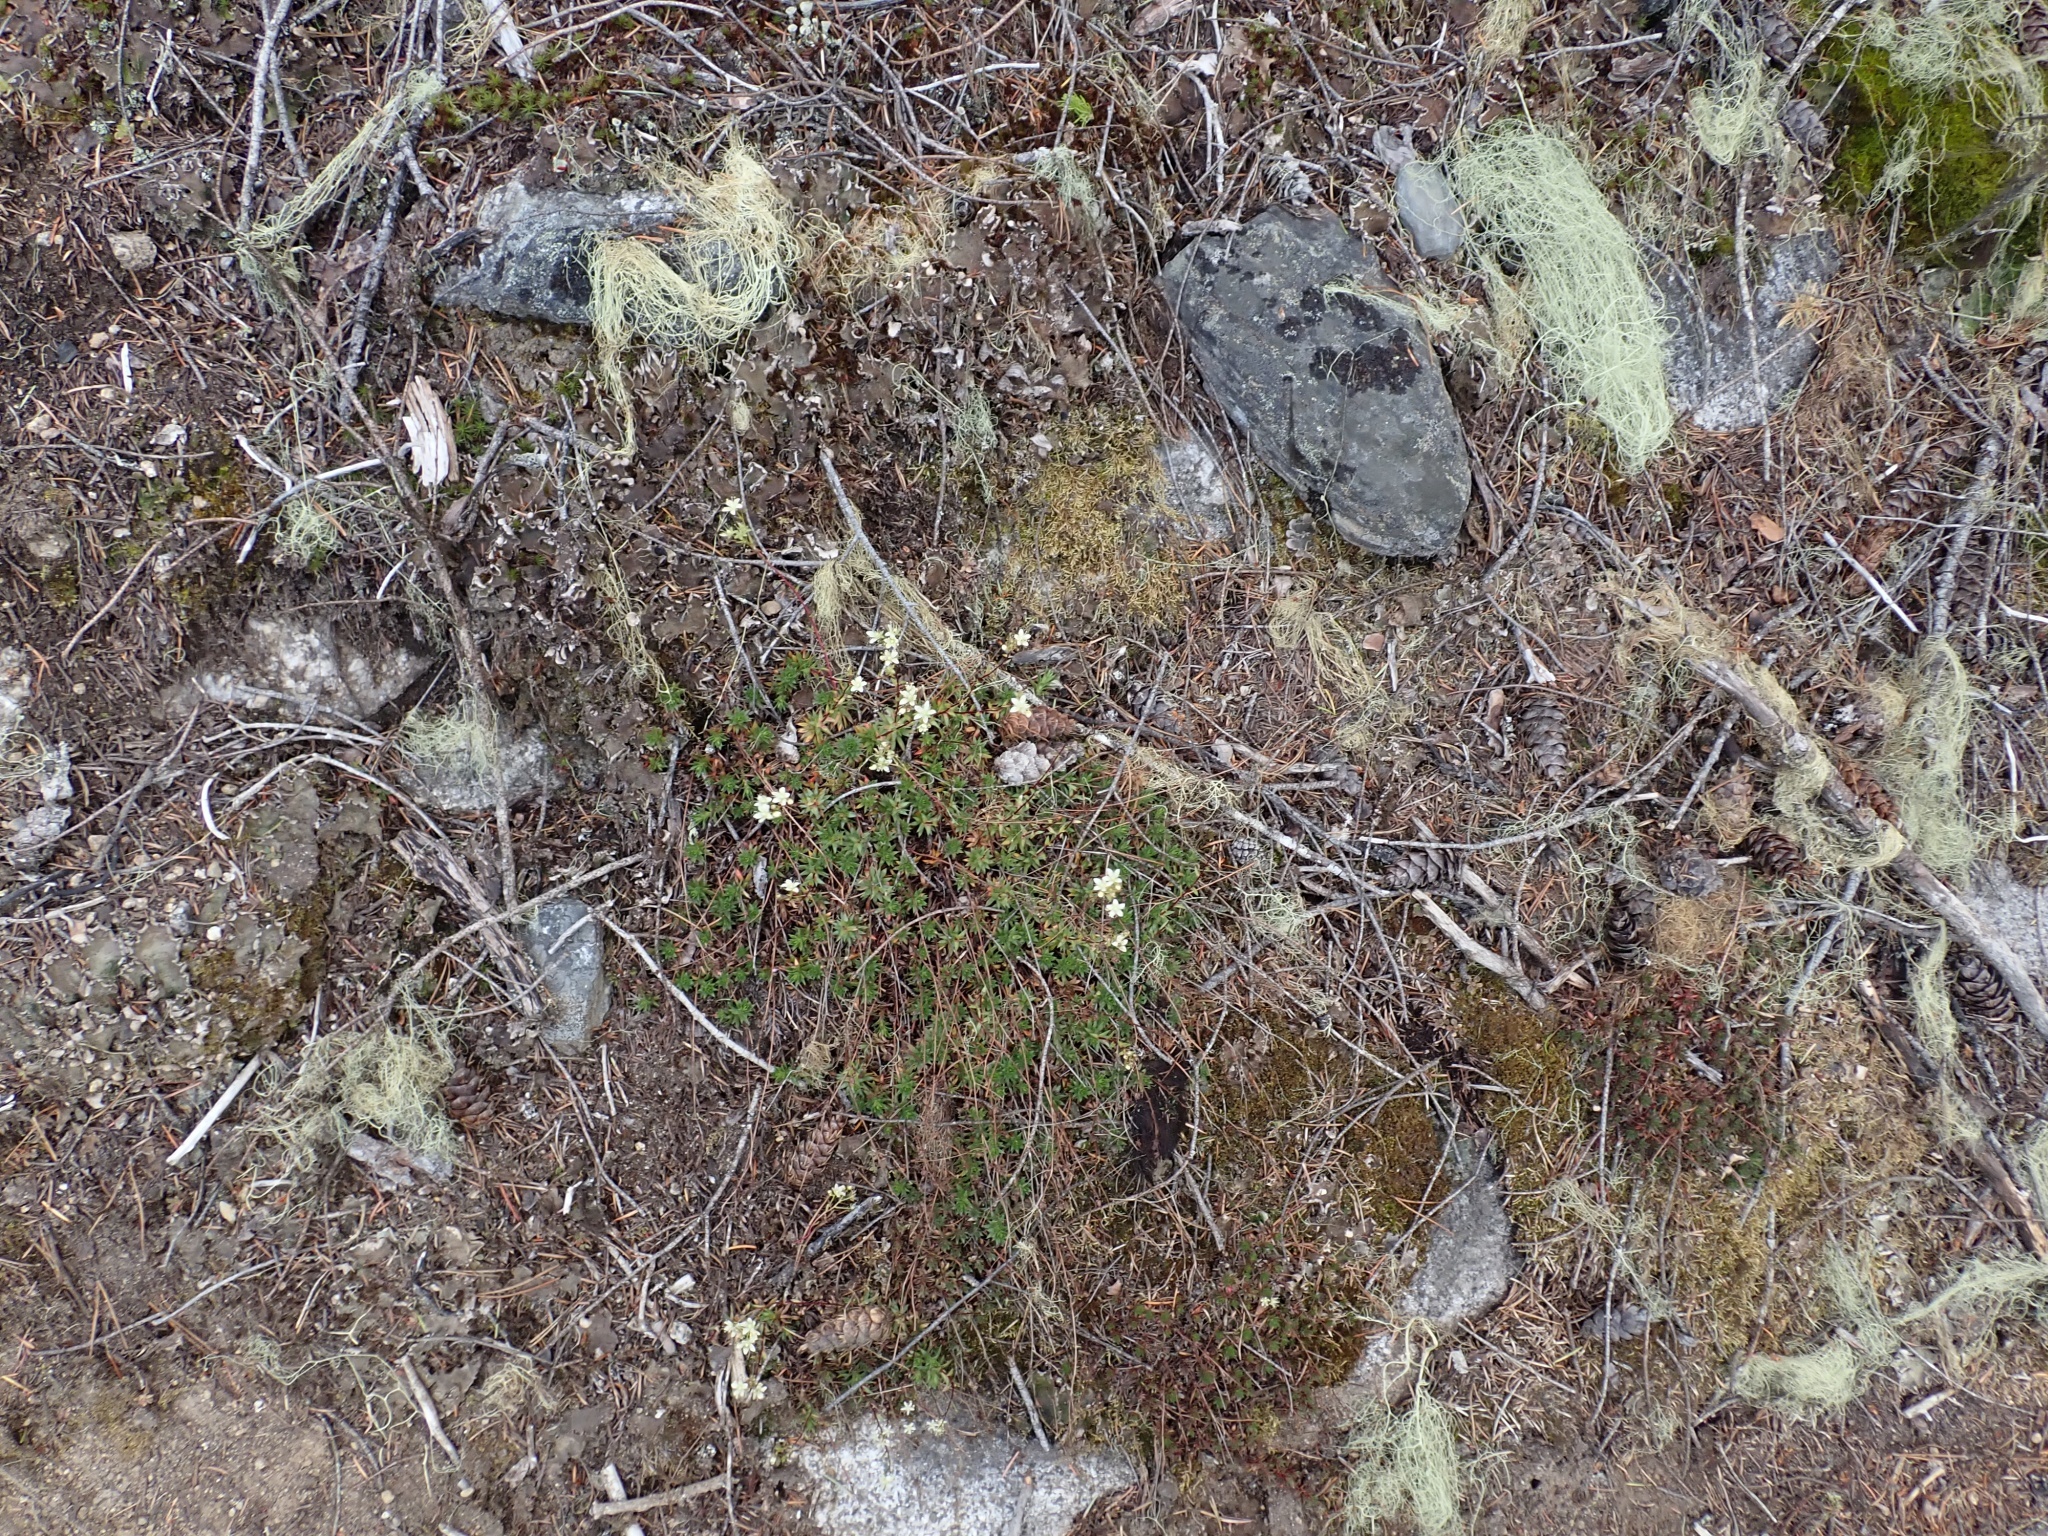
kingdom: Plantae
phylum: Tracheophyta
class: Magnoliopsida
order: Saxifragales
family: Saxifragaceae
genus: Saxifraga
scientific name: Saxifraga bronchialis
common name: Matted saxifrage
